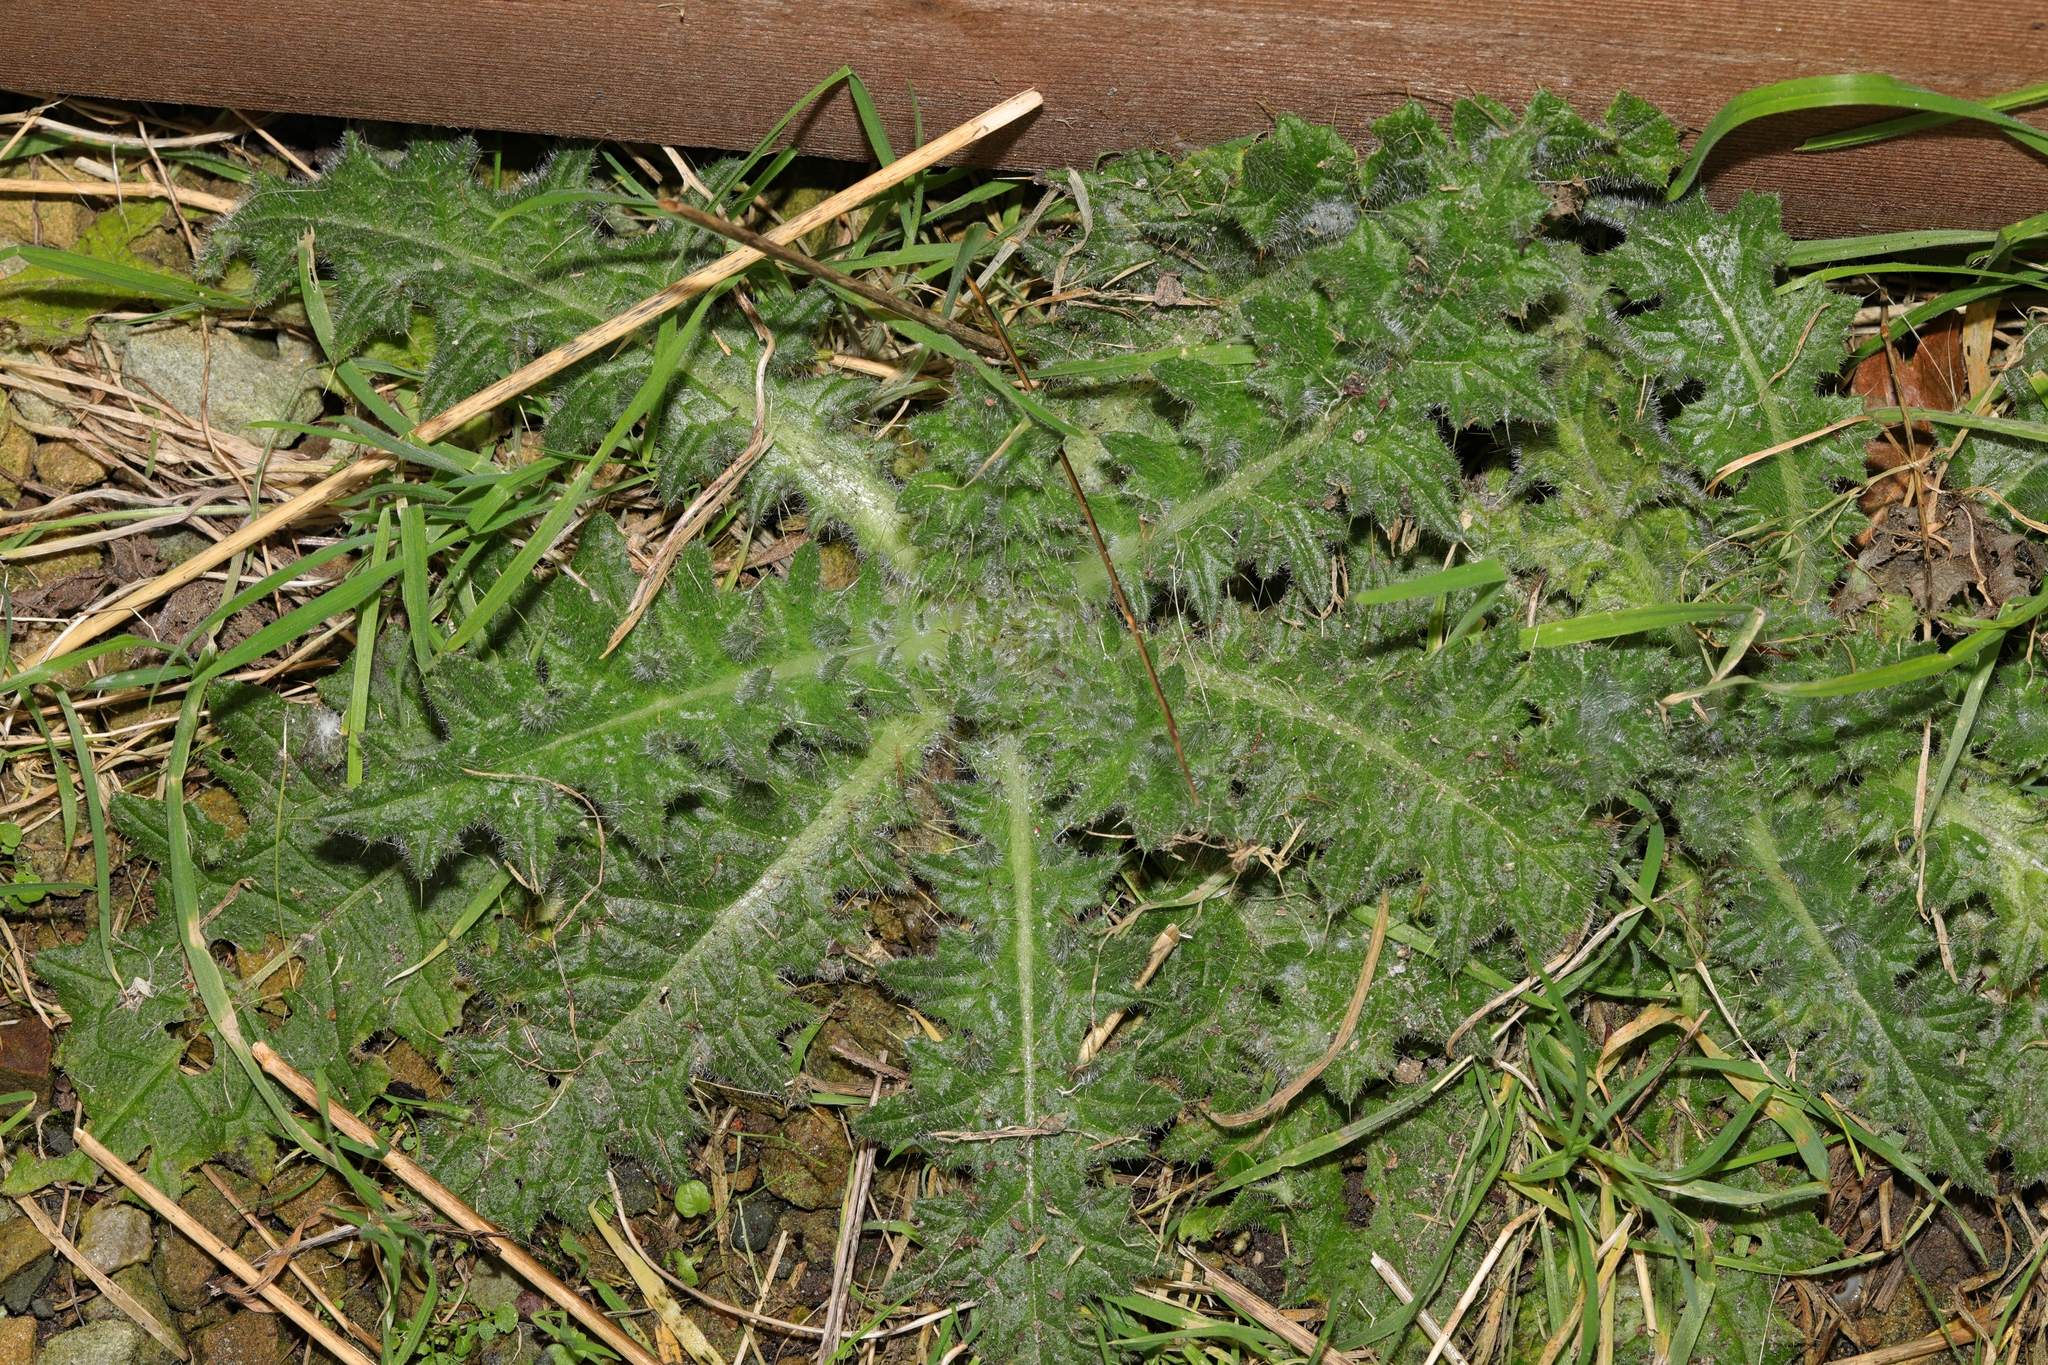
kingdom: Plantae
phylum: Tracheophyta
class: Magnoliopsida
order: Asterales
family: Asteraceae
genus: Cirsium
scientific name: Cirsium vulgare
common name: Bull thistle
